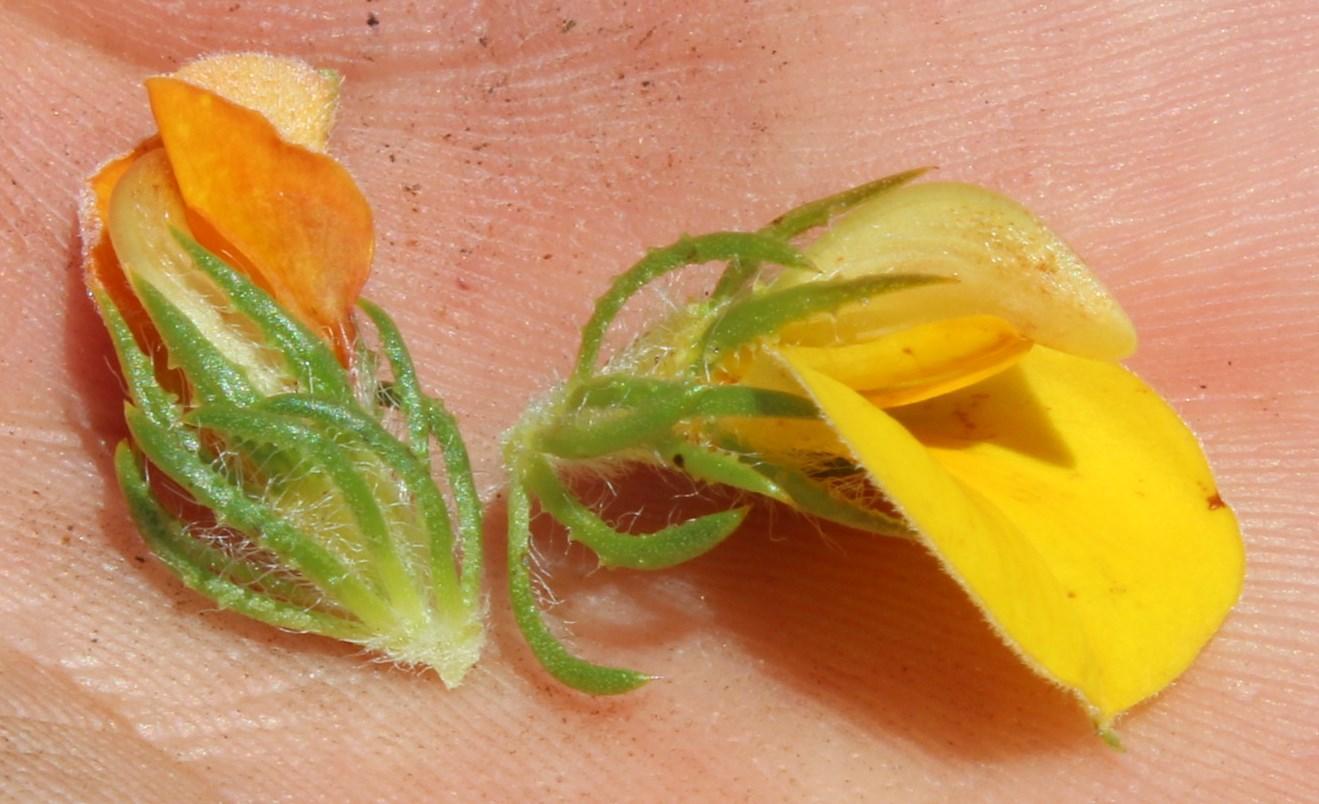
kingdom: Plantae
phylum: Tracheophyta
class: Magnoliopsida
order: Fabales
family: Fabaceae
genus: Aspalathus
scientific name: Aspalathus ciliaris
